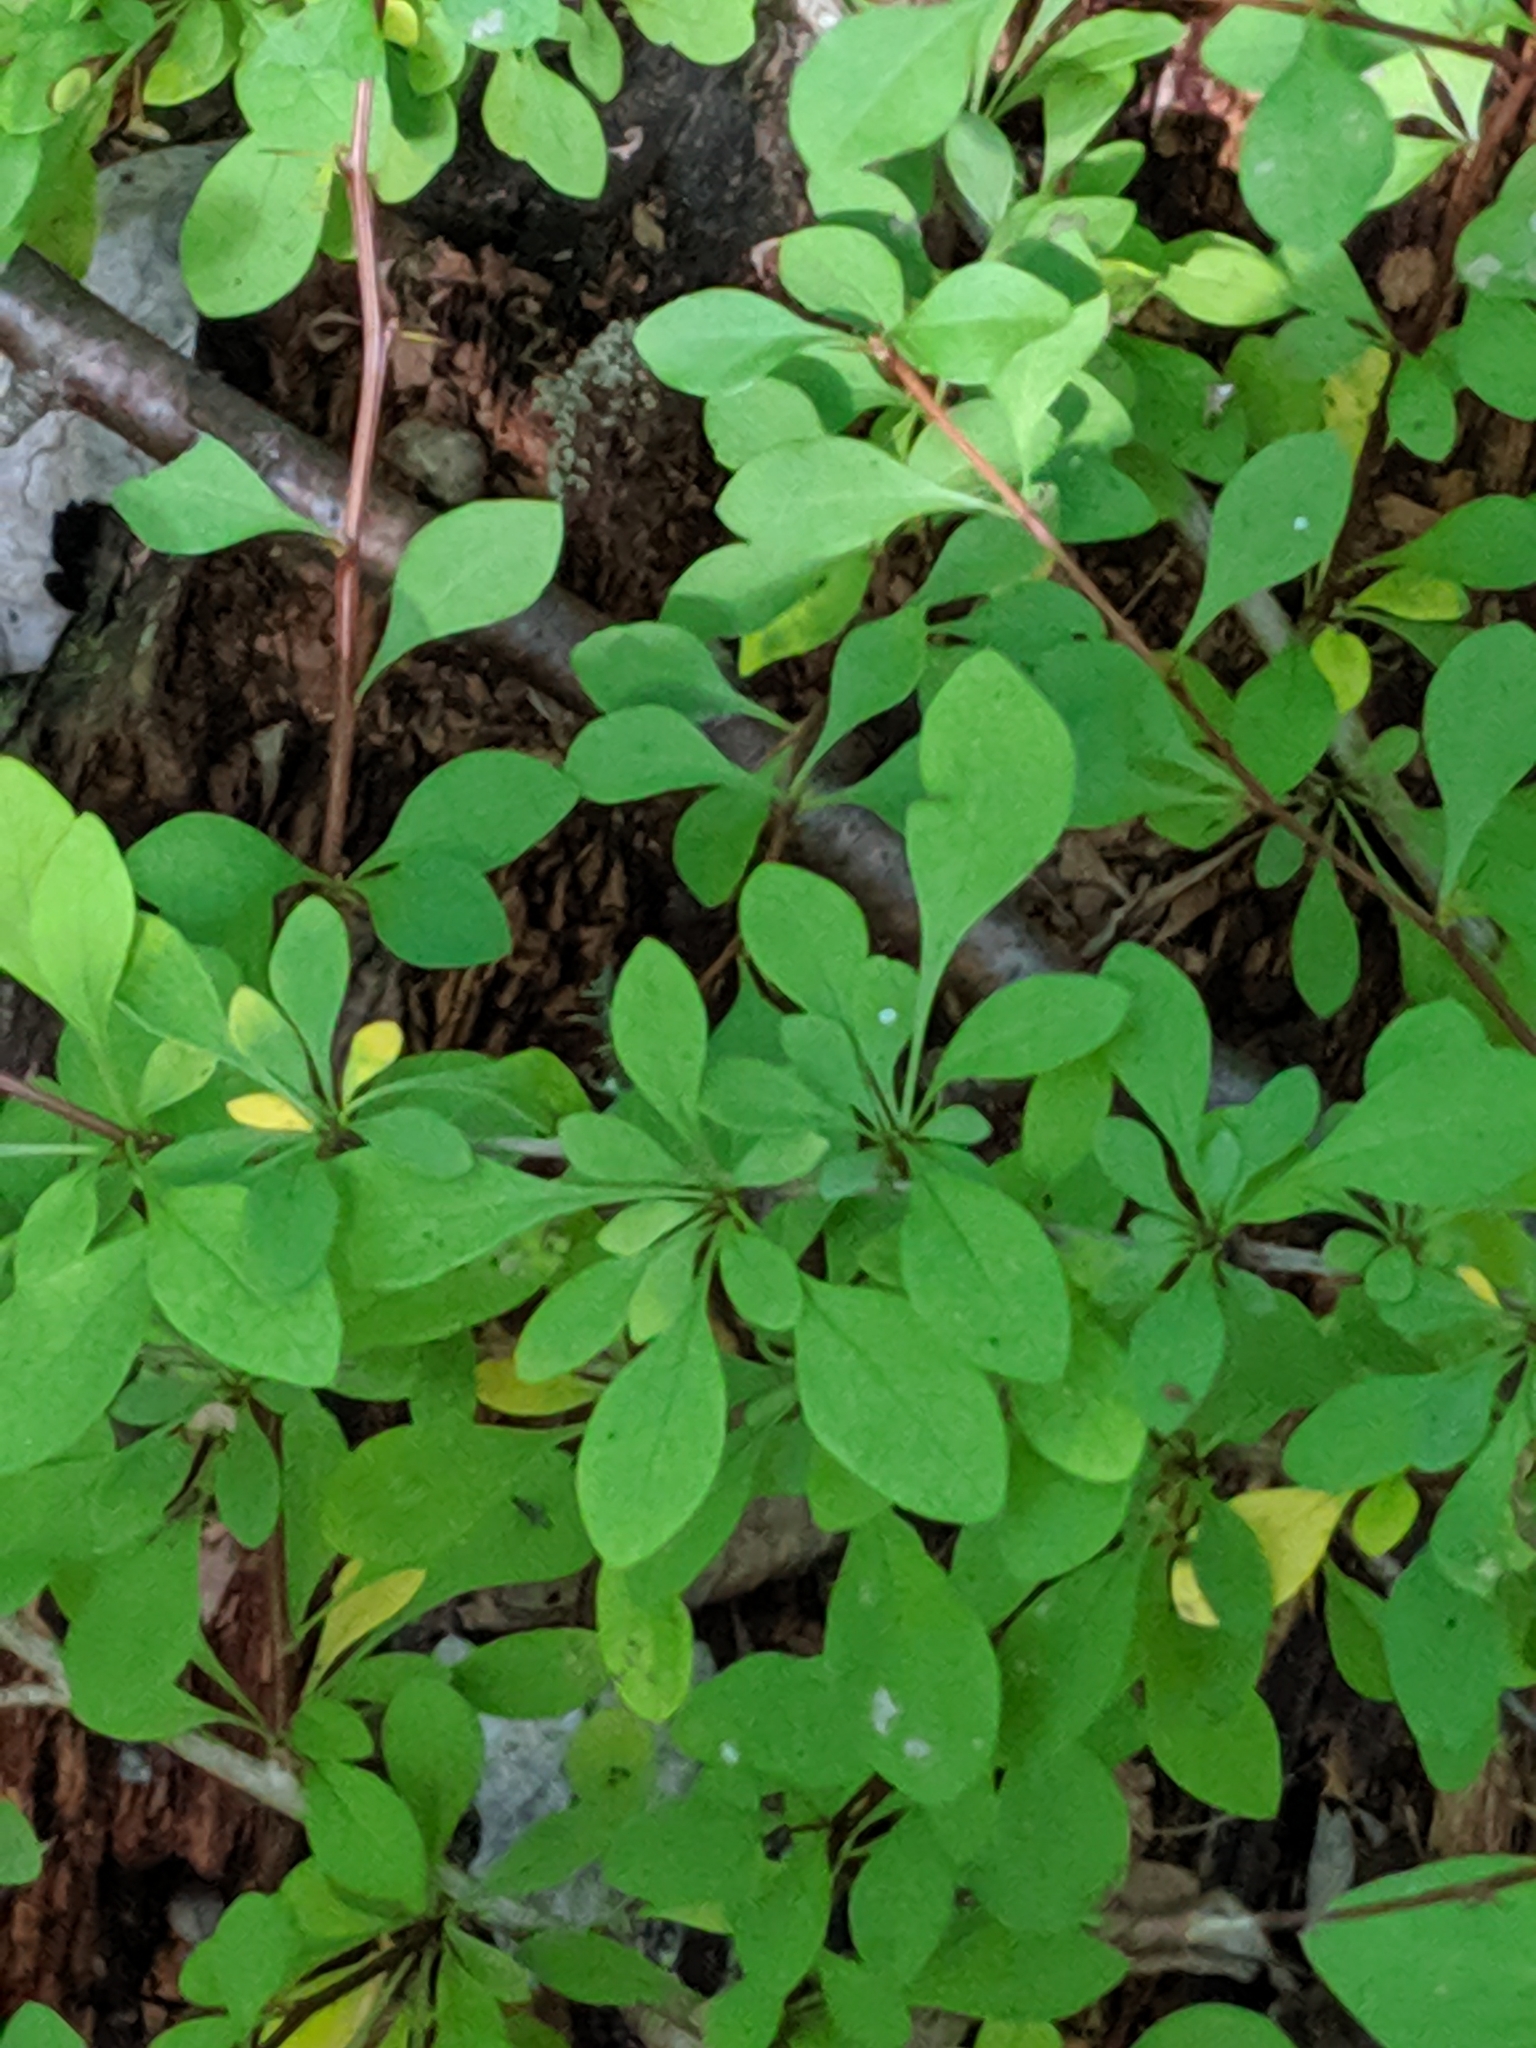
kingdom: Plantae
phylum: Tracheophyta
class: Magnoliopsida
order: Ranunculales
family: Berberidaceae
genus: Berberis
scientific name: Berberis thunbergii
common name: Japanese barberry
